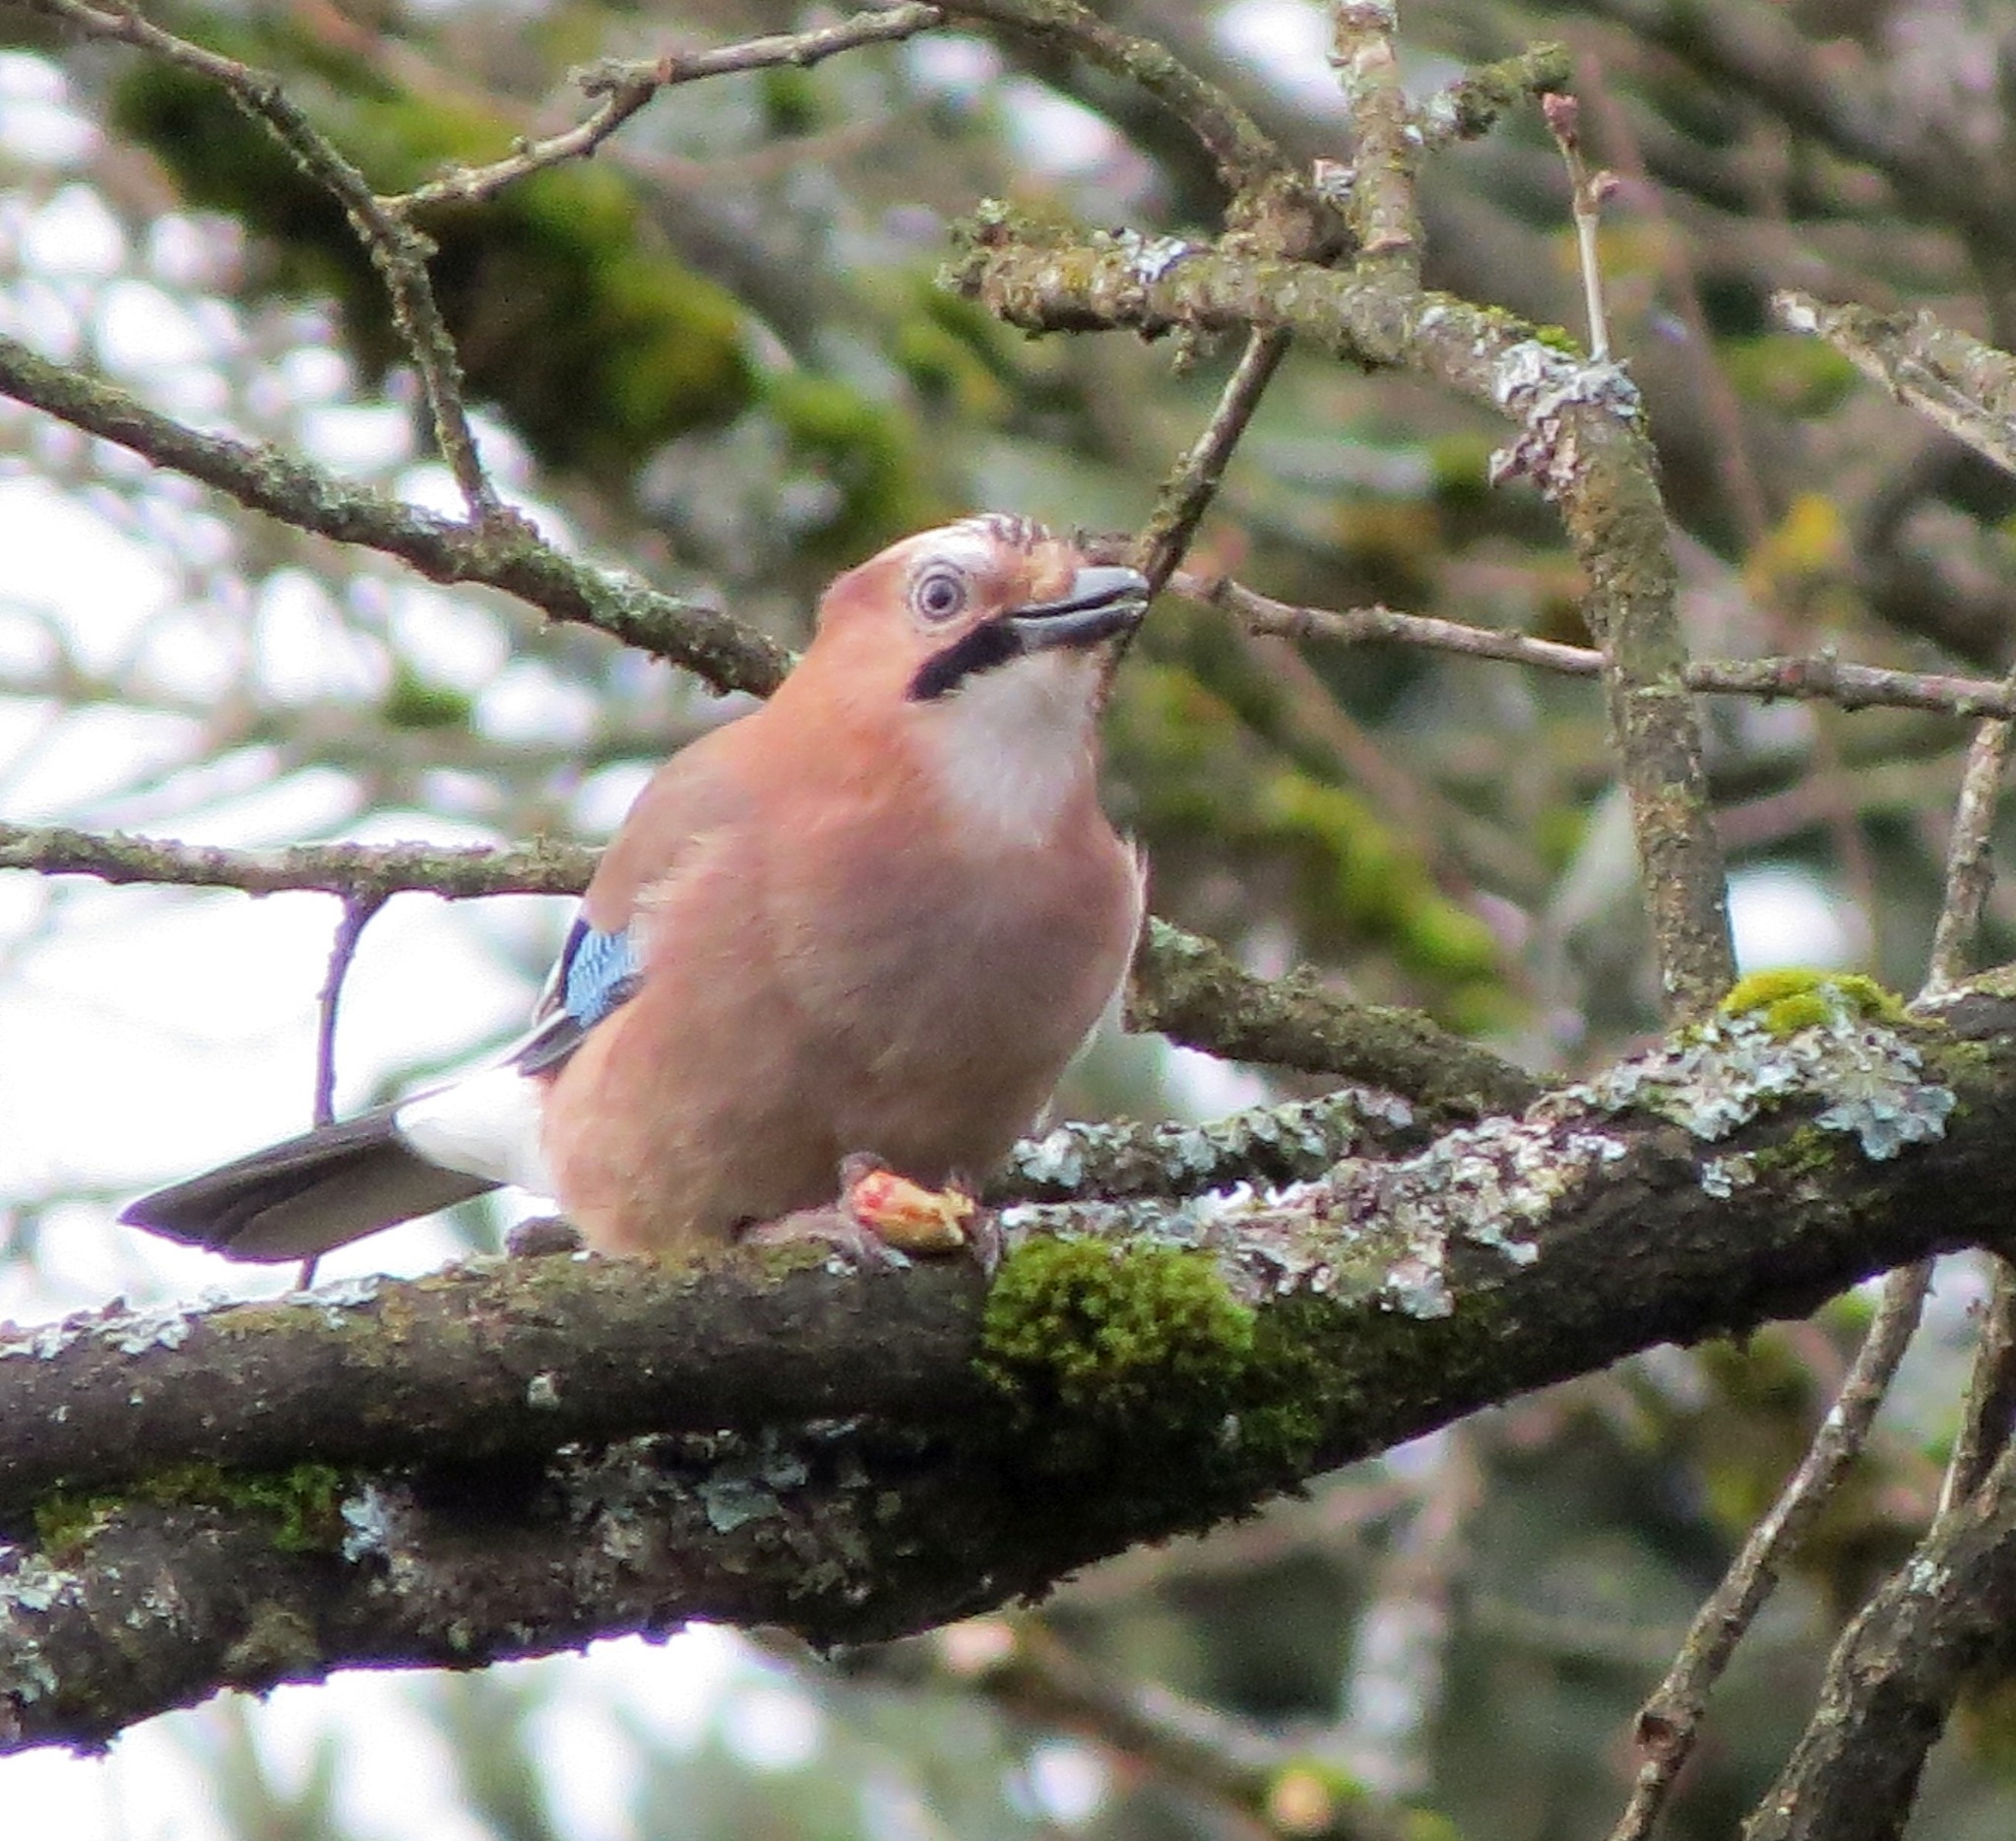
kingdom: Animalia
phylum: Chordata
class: Aves
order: Passeriformes
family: Corvidae
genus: Garrulus
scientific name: Garrulus glandarius
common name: Eurasian jay
